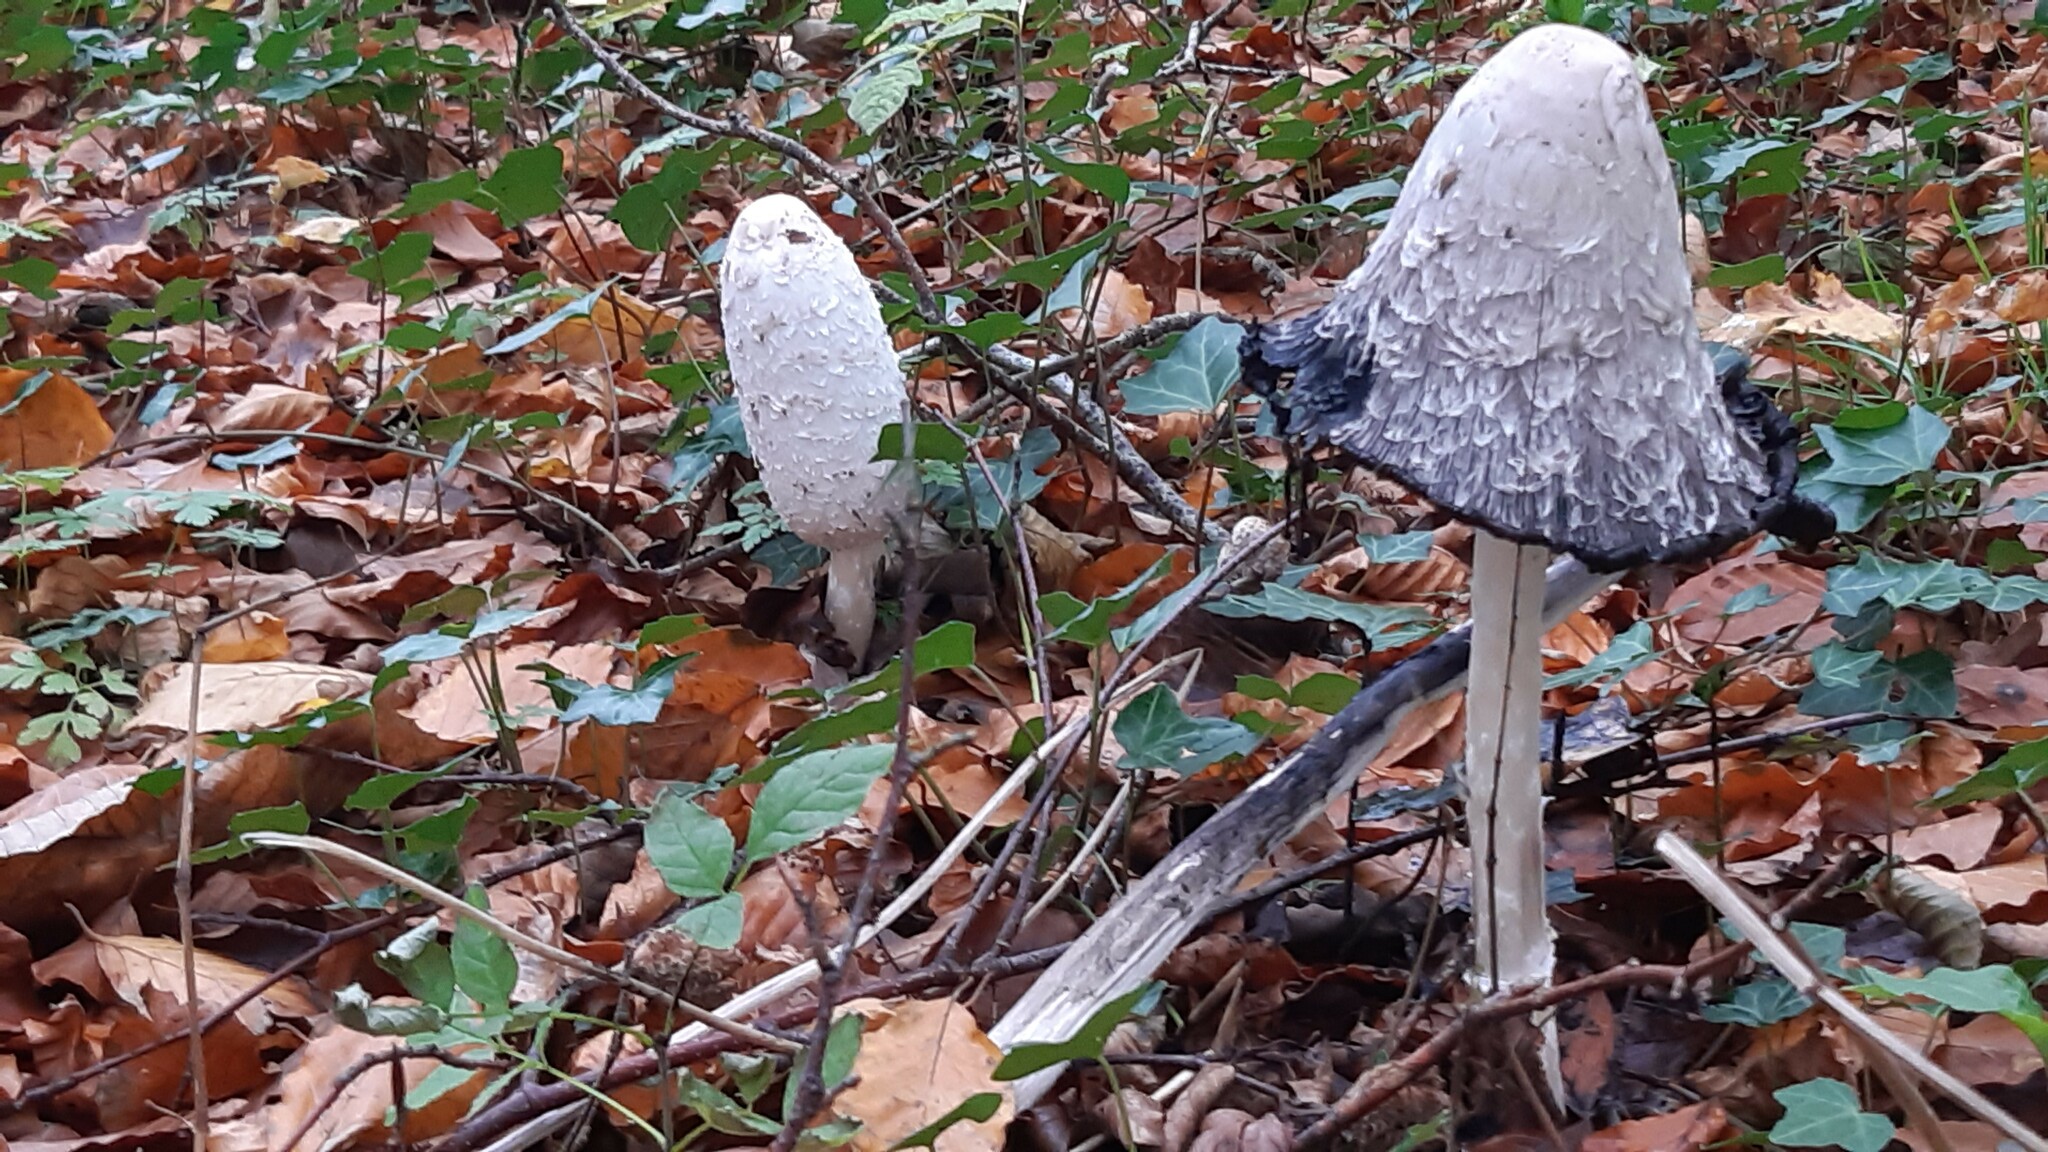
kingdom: Fungi
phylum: Basidiomycota
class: Agaricomycetes
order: Agaricales
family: Agaricaceae
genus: Coprinus
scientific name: Coprinus comatus
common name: Lawyer's wig
